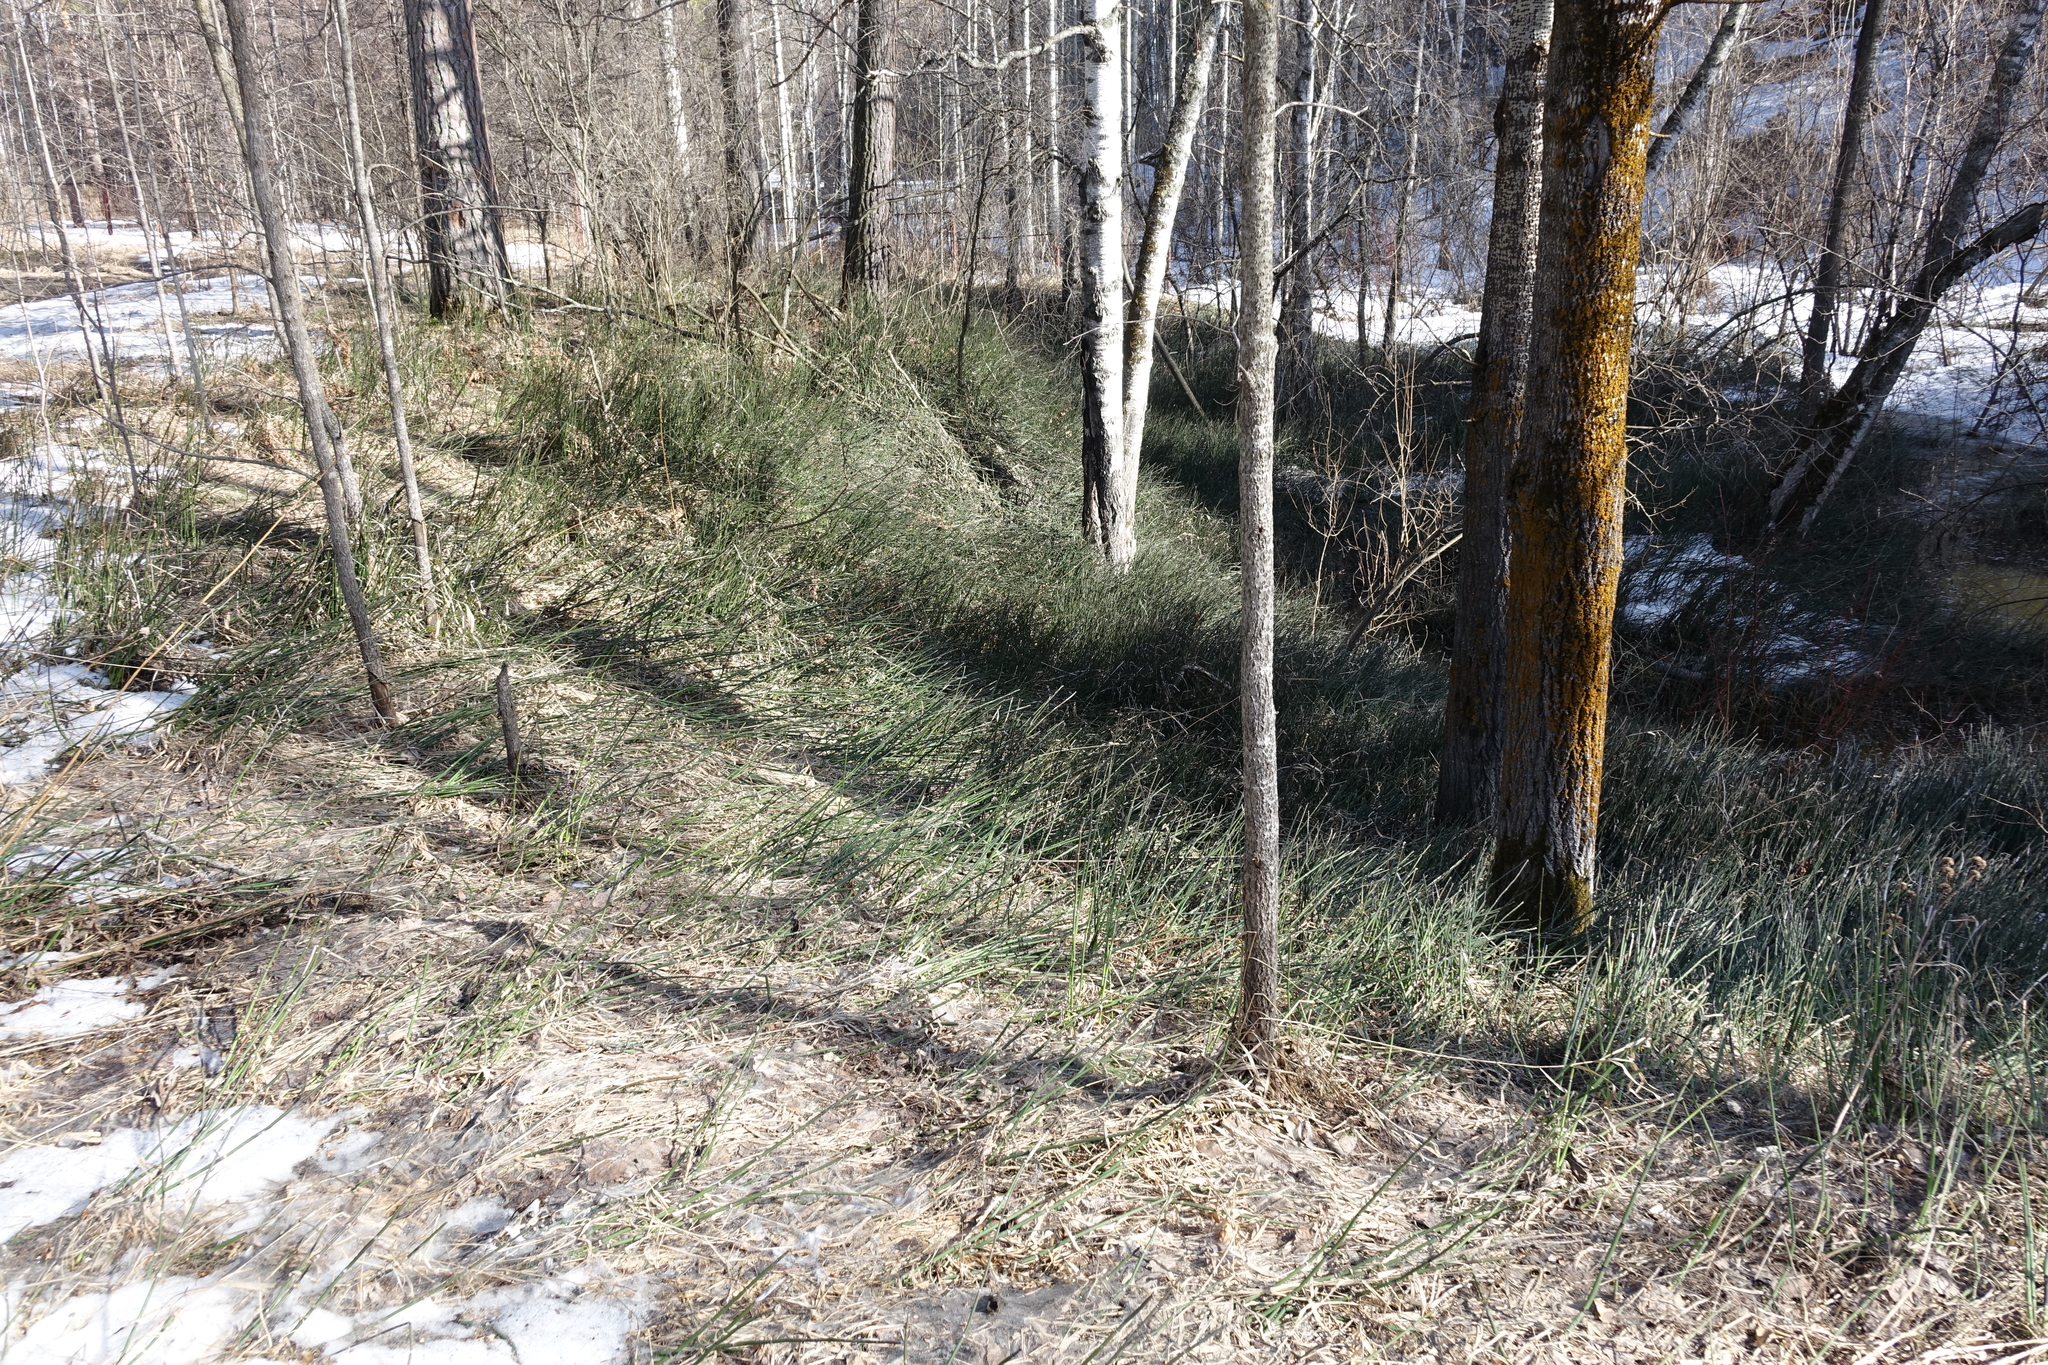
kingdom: Plantae
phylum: Tracheophyta
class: Magnoliopsida
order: Malpighiales
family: Salicaceae
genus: Populus
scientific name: Populus tremula
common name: European aspen
